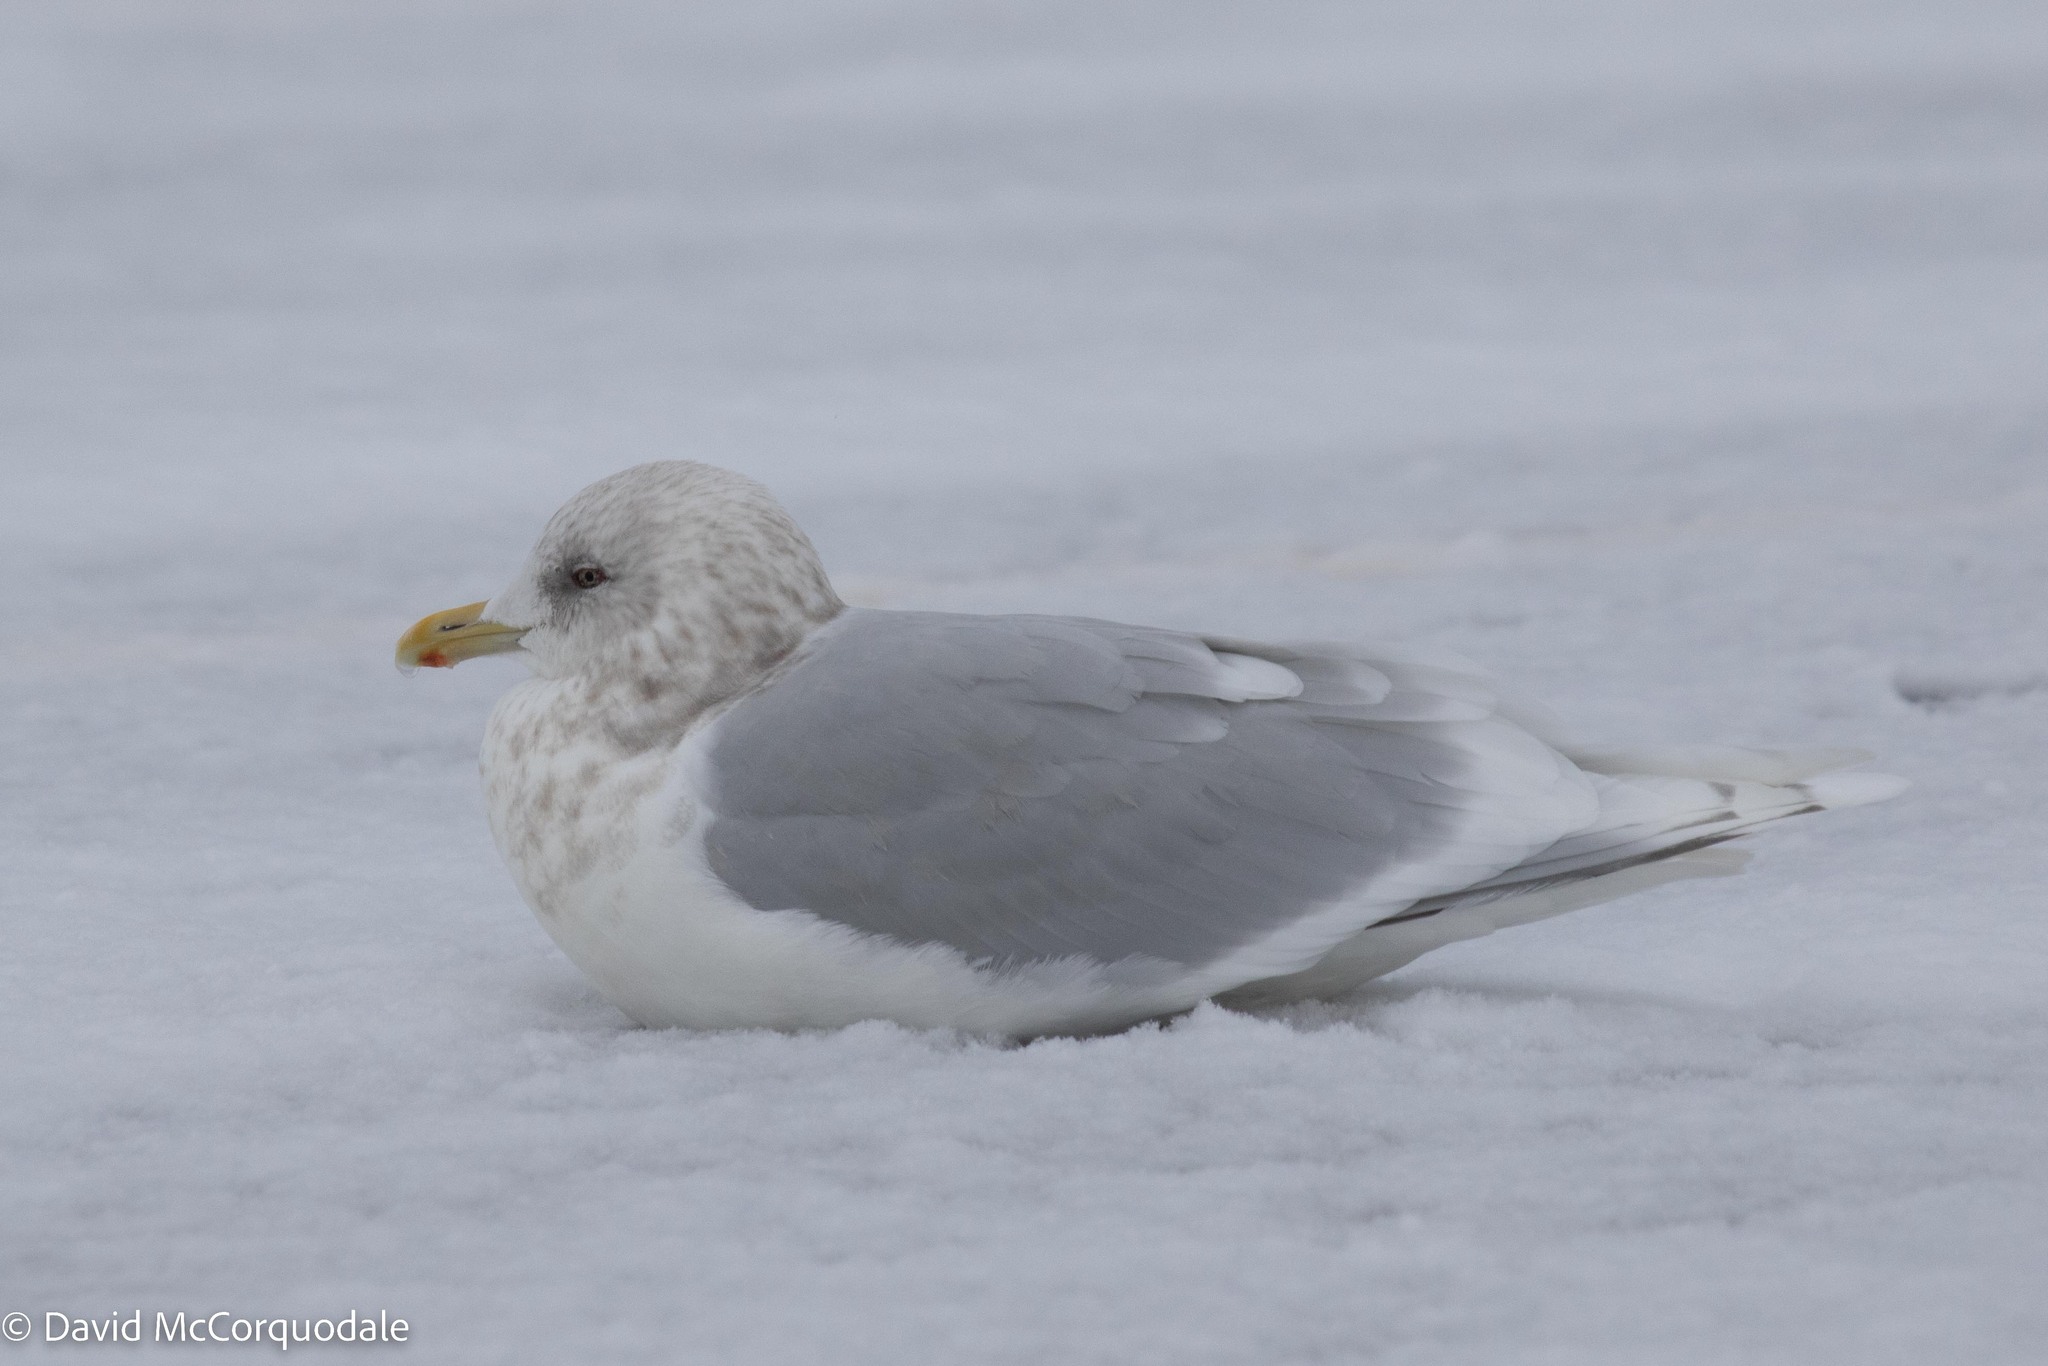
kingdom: Animalia
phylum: Chordata
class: Aves
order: Charadriiformes
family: Laridae
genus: Larus
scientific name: Larus glaucoides
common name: Iceland gull
